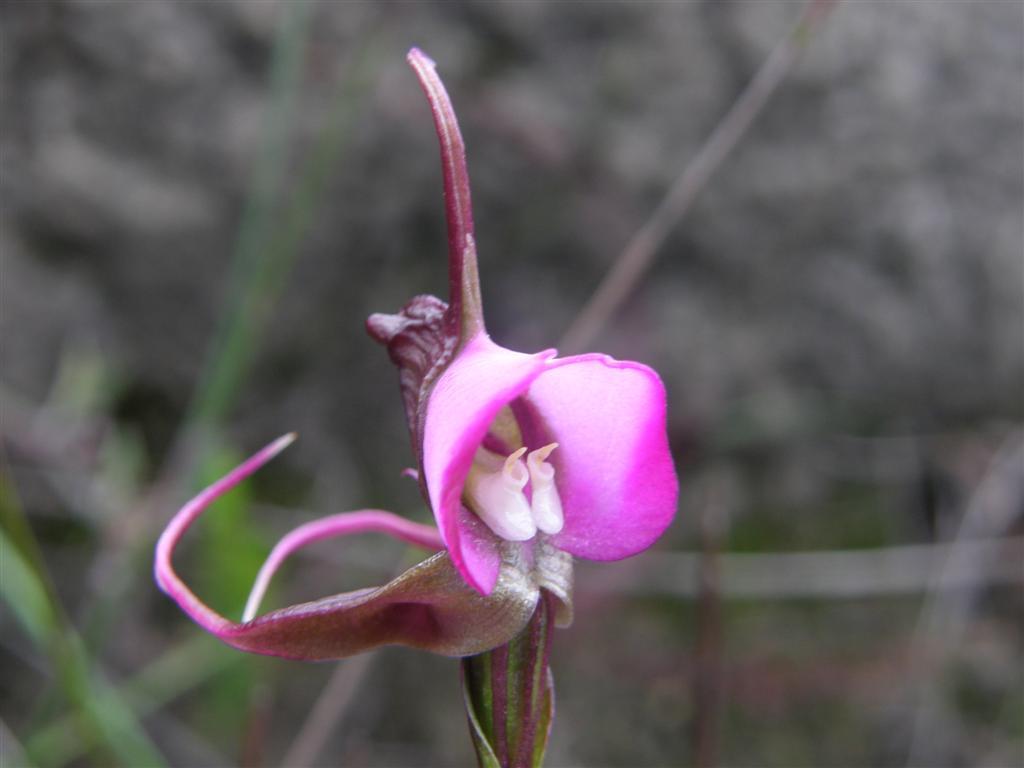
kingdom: Plantae
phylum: Tracheophyta
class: Liliopsida
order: Asparagales
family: Orchidaceae
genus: Disperis
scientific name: Disperis capensis
